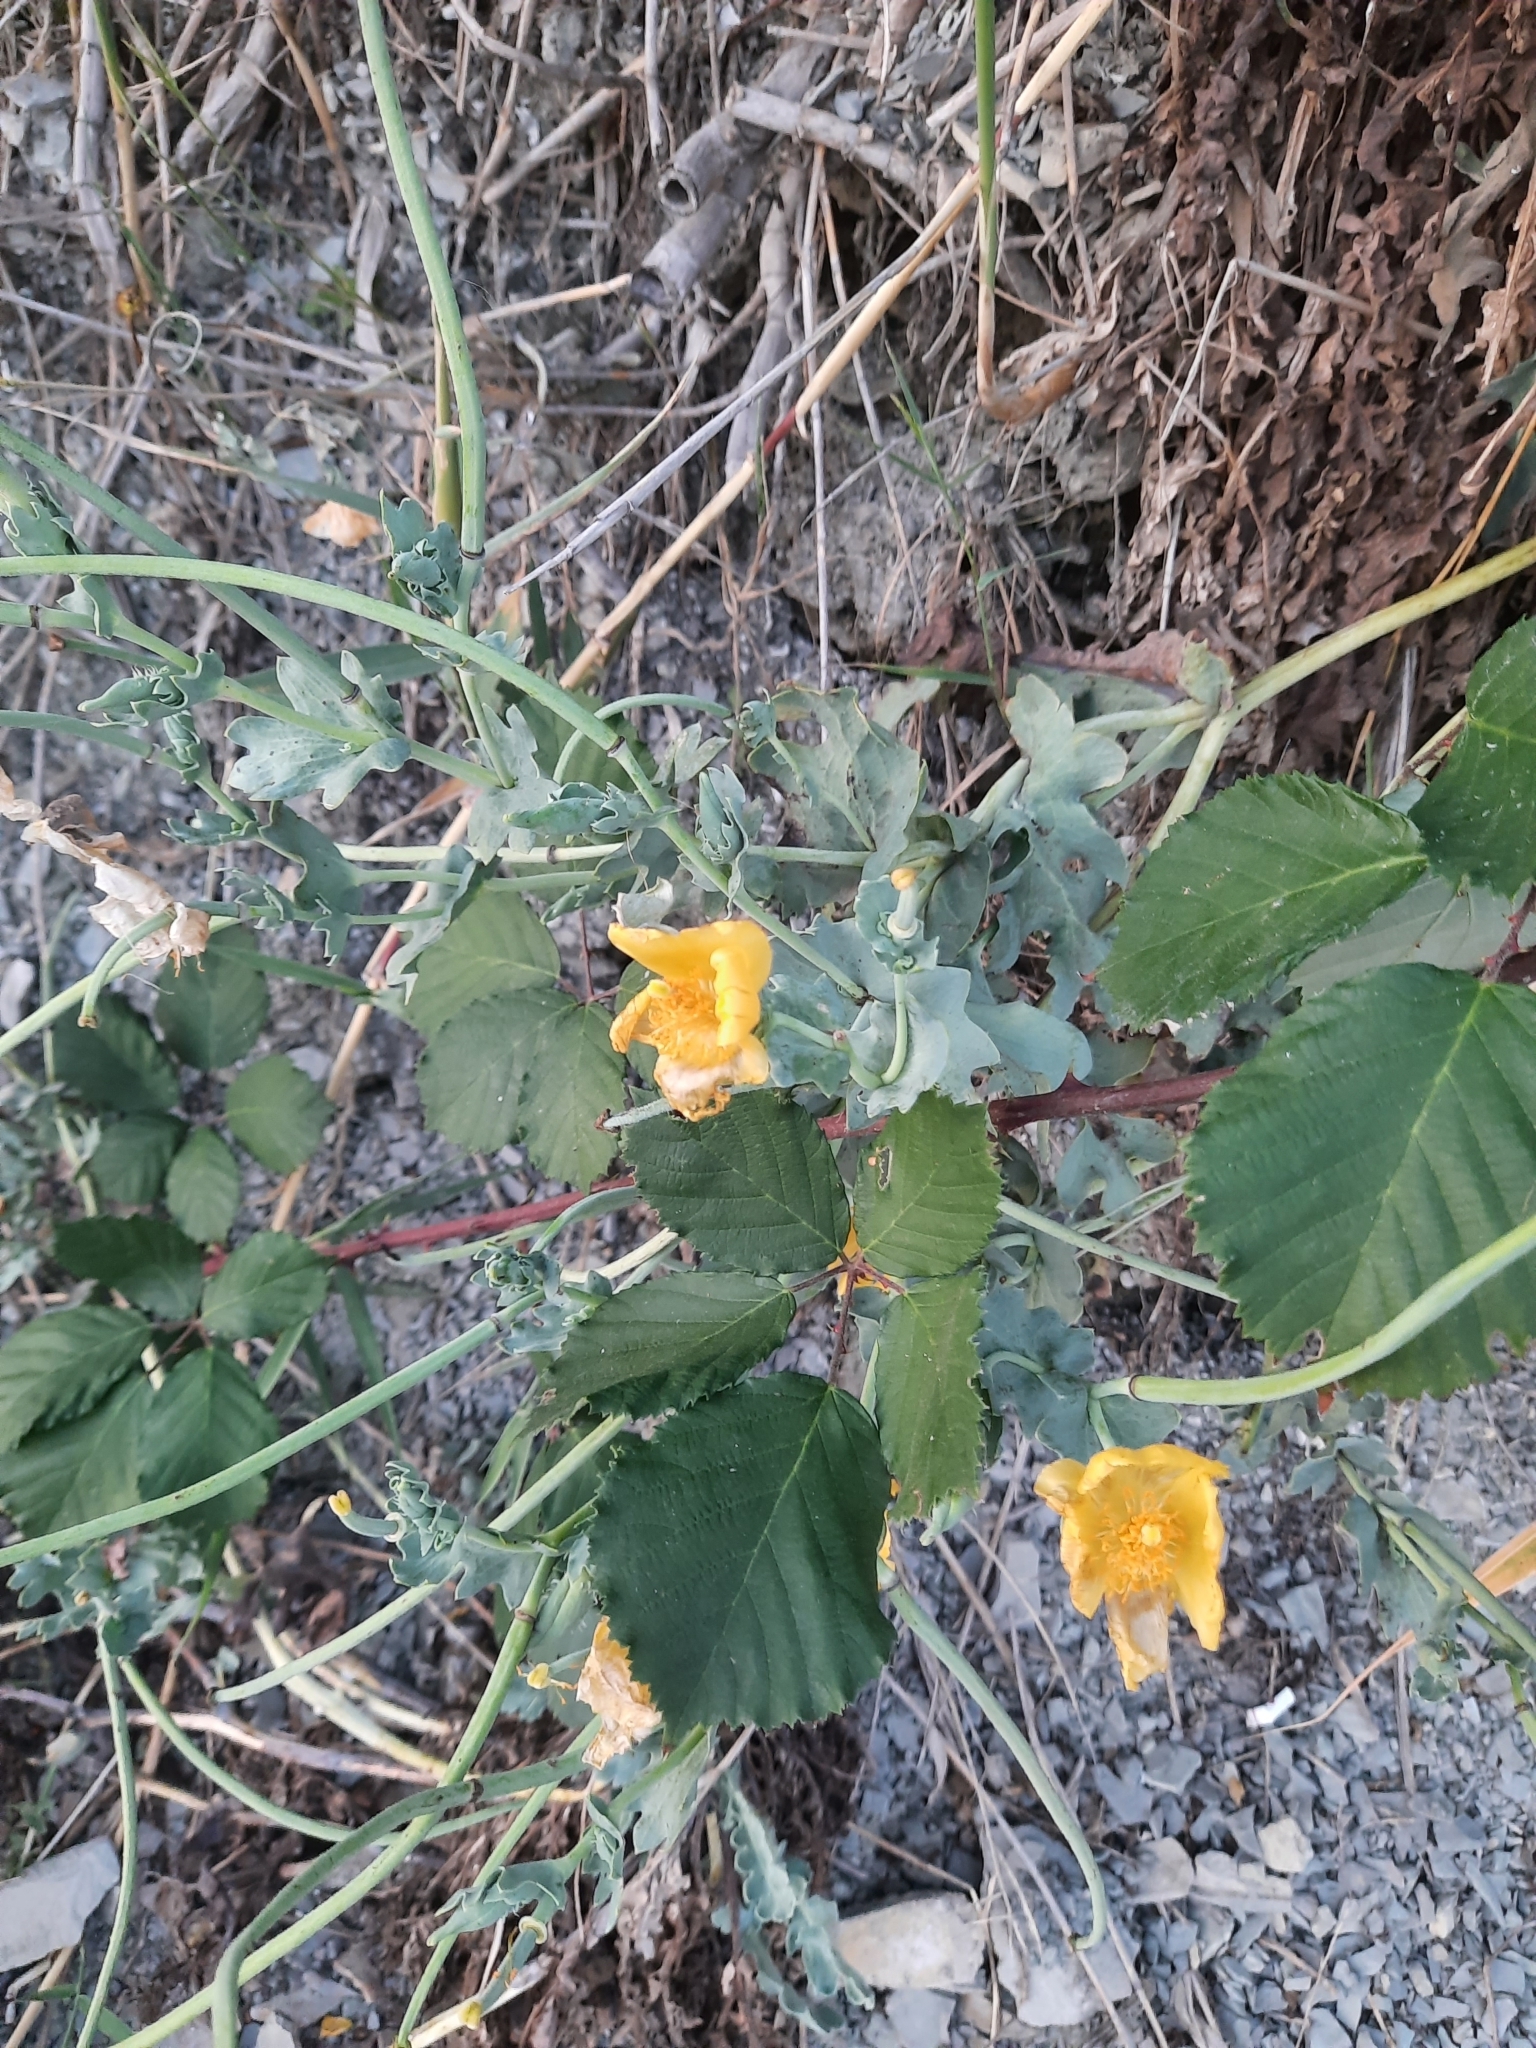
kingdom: Plantae
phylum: Tracheophyta
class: Magnoliopsida
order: Ranunculales
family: Papaveraceae
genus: Glaucium
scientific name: Glaucium flavum
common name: Yellow horned-poppy
